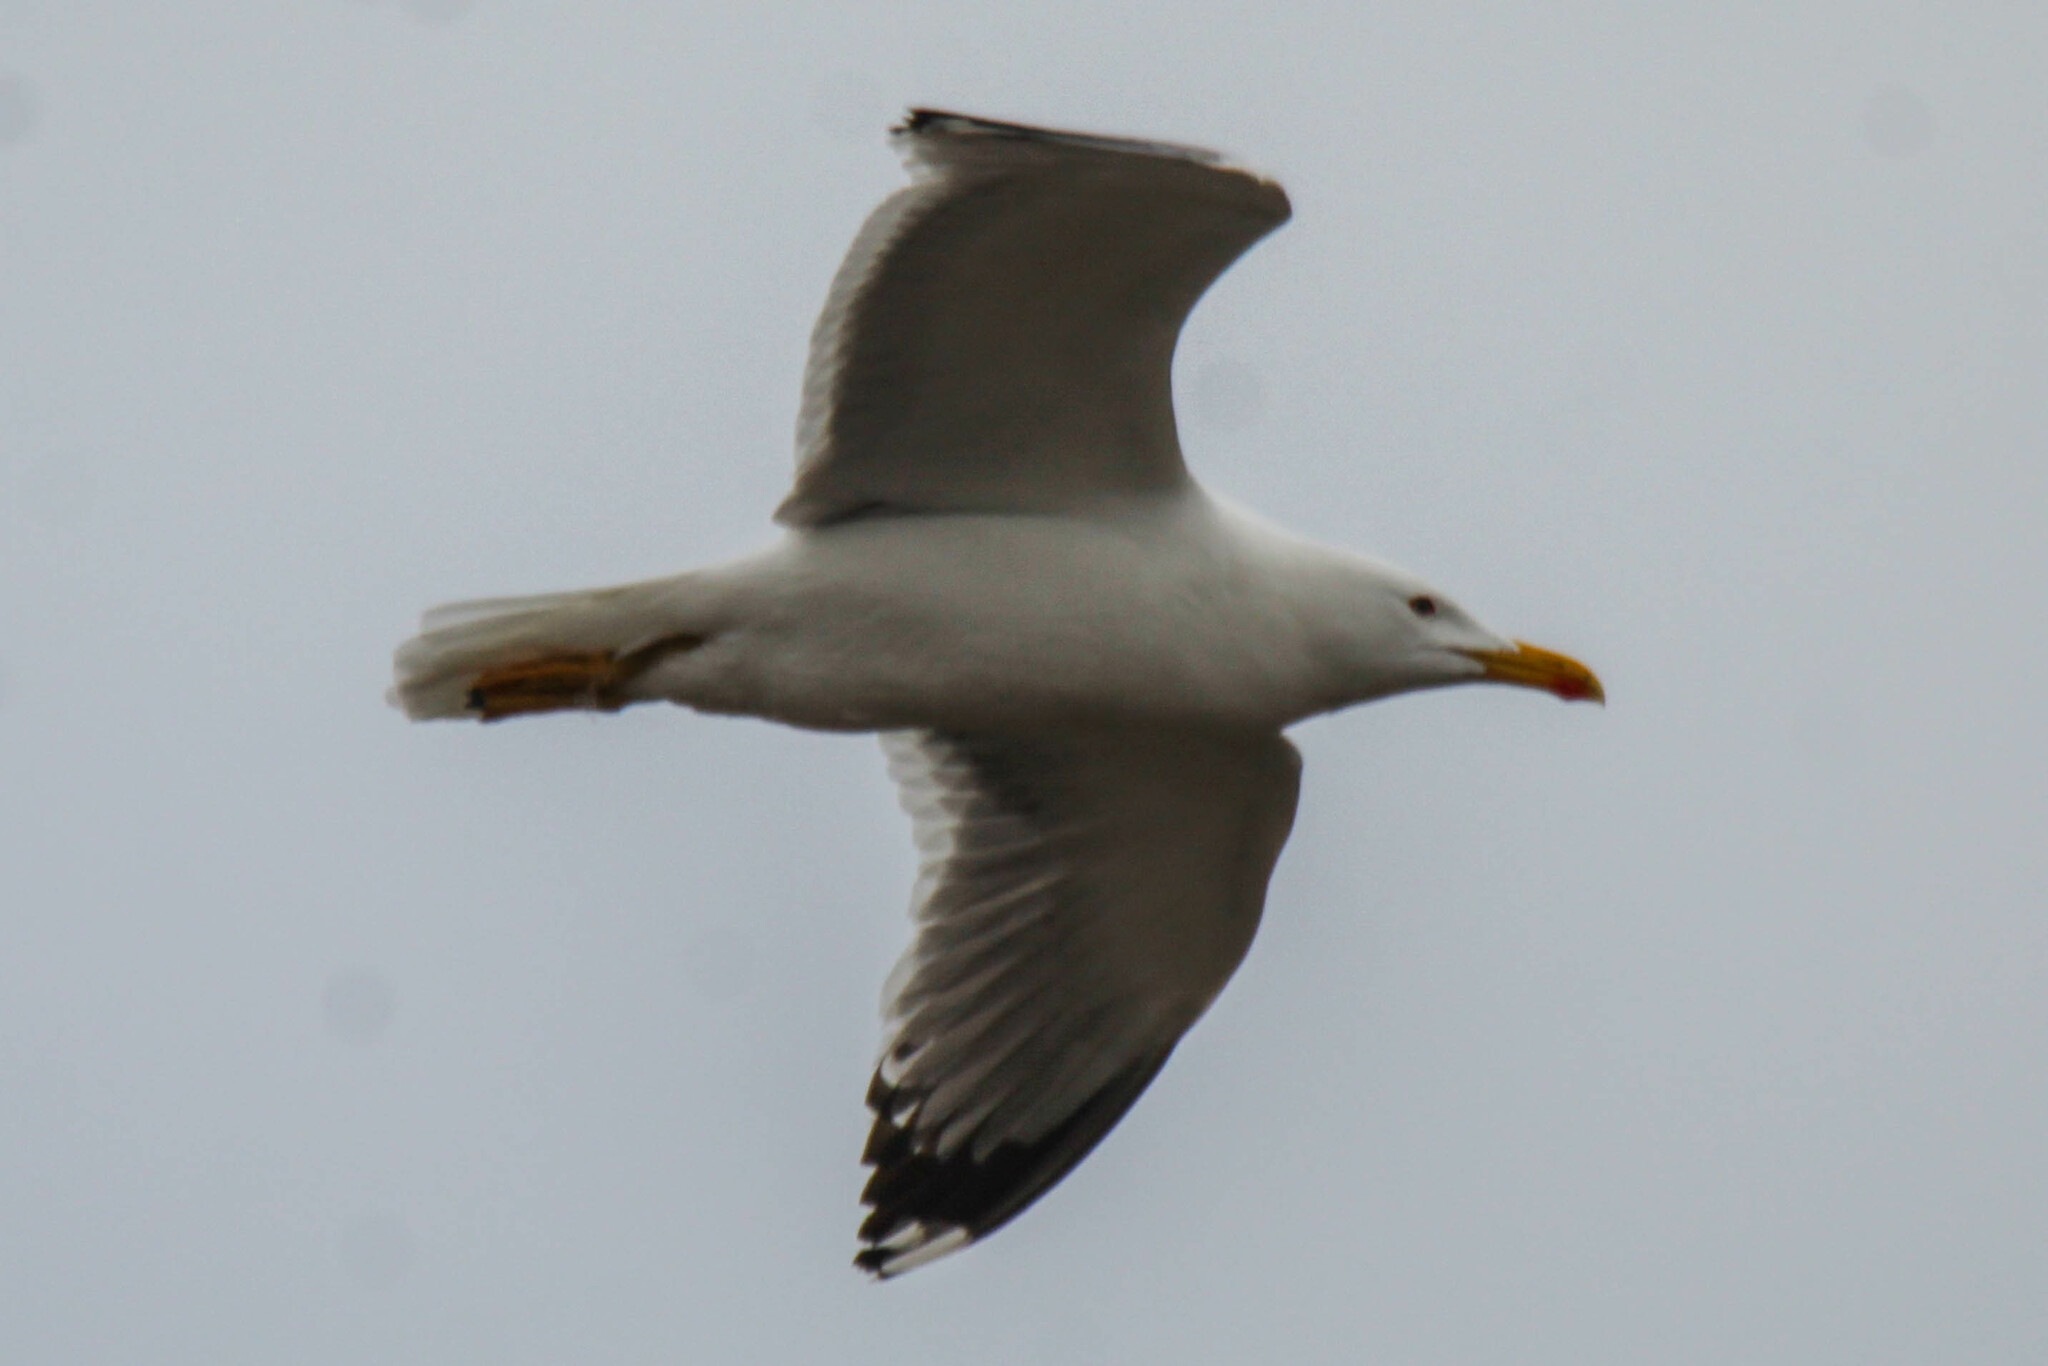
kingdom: Animalia
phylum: Chordata
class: Aves
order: Charadriiformes
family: Laridae
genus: Larus
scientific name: Larus fuscus
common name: Lesser black-backed gull
